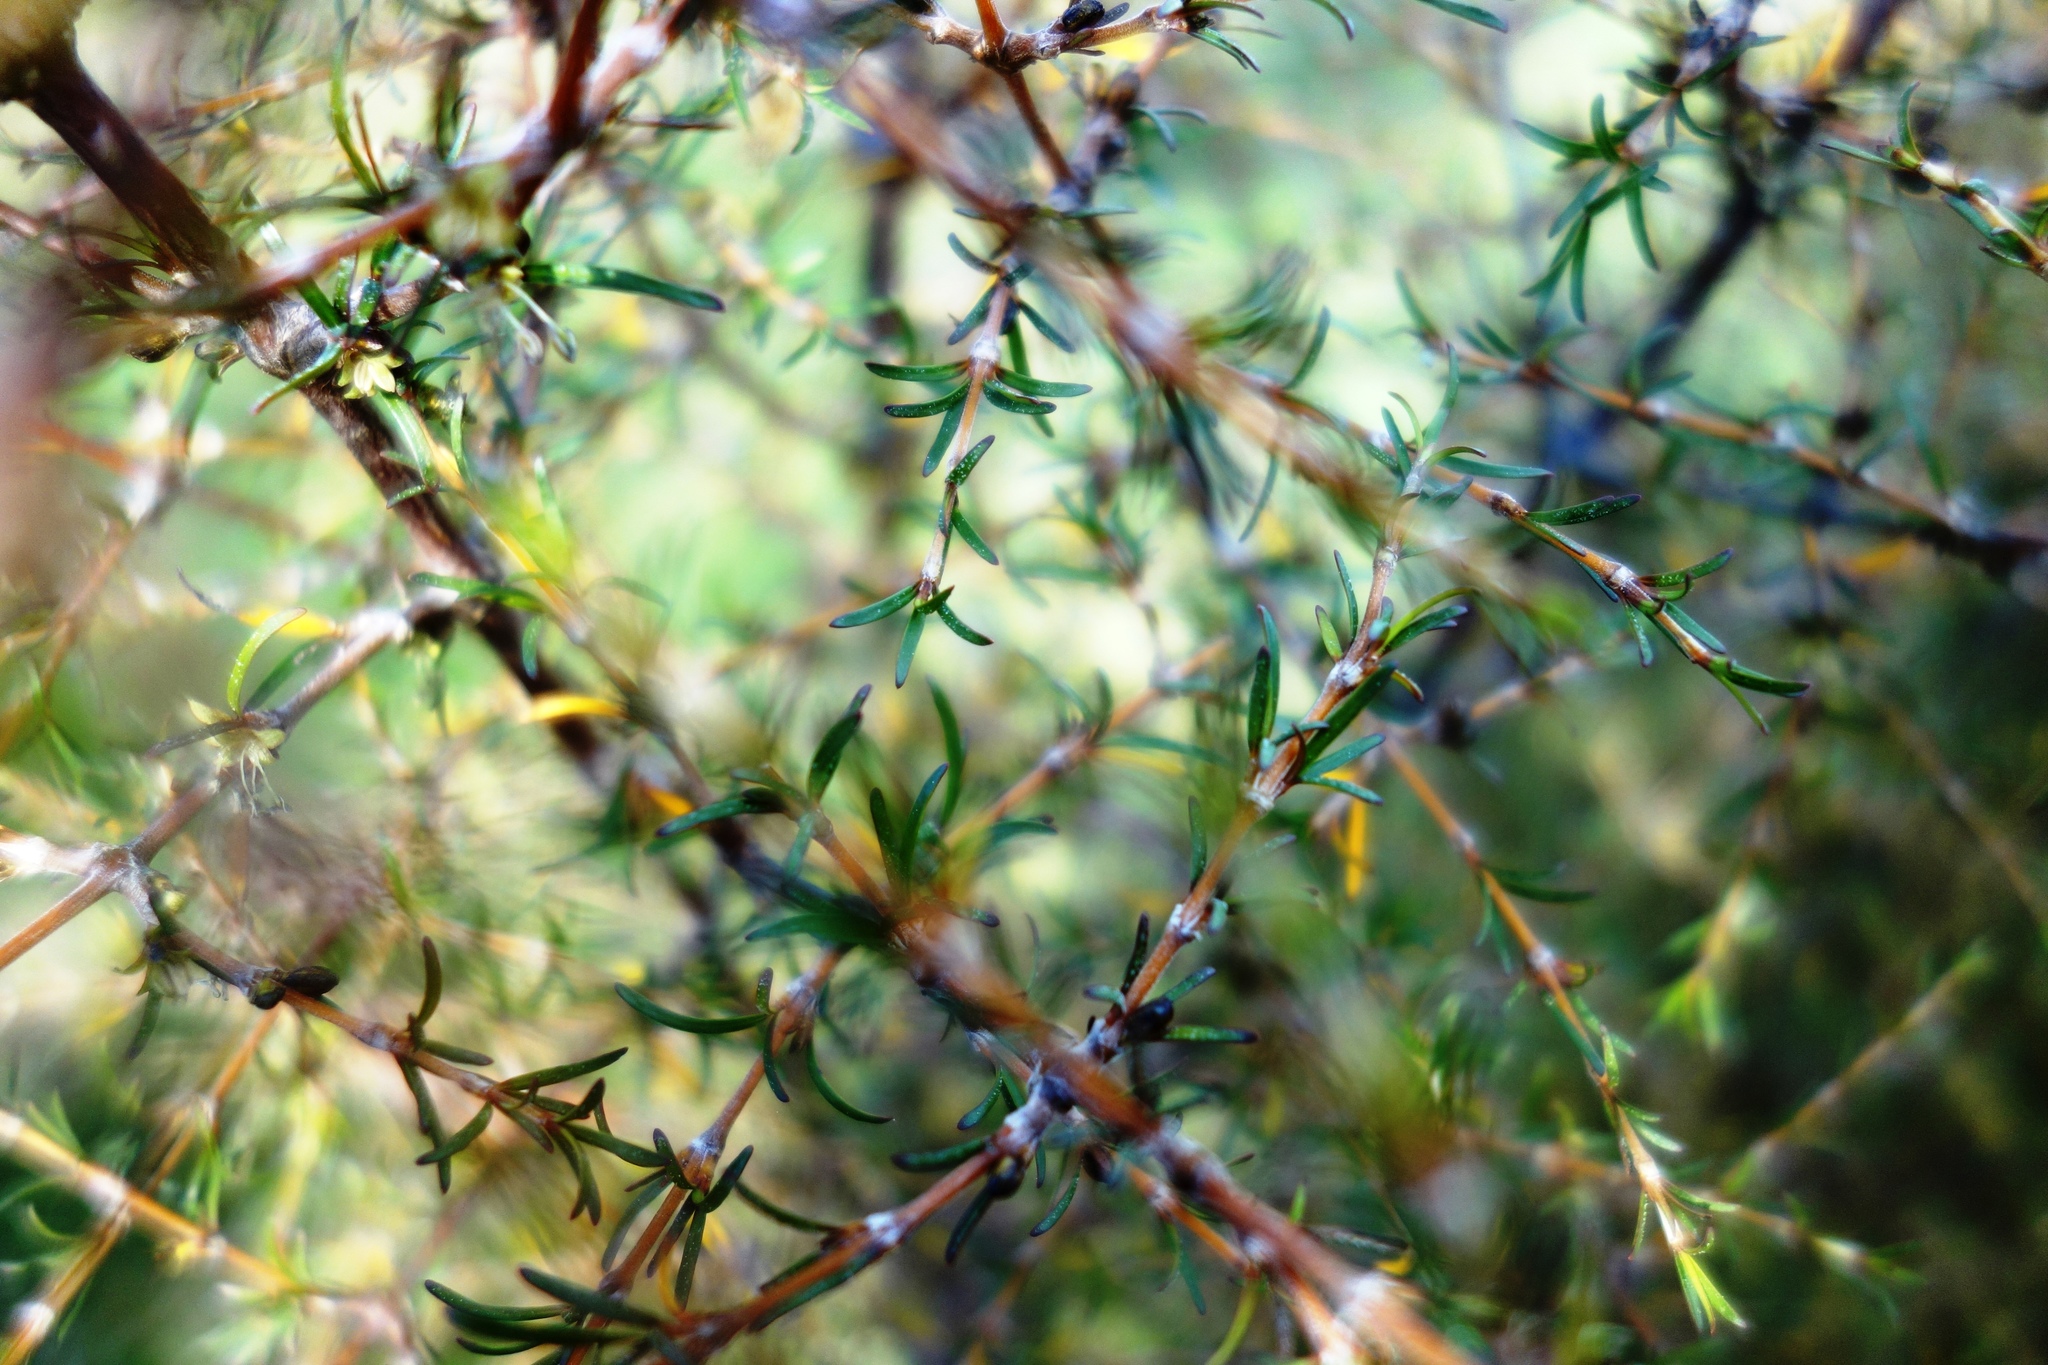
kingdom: Plantae
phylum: Tracheophyta
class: Magnoliopsida
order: Gentianales
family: Rubiaceae
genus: Coprosma
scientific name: Coprosma rugosa
